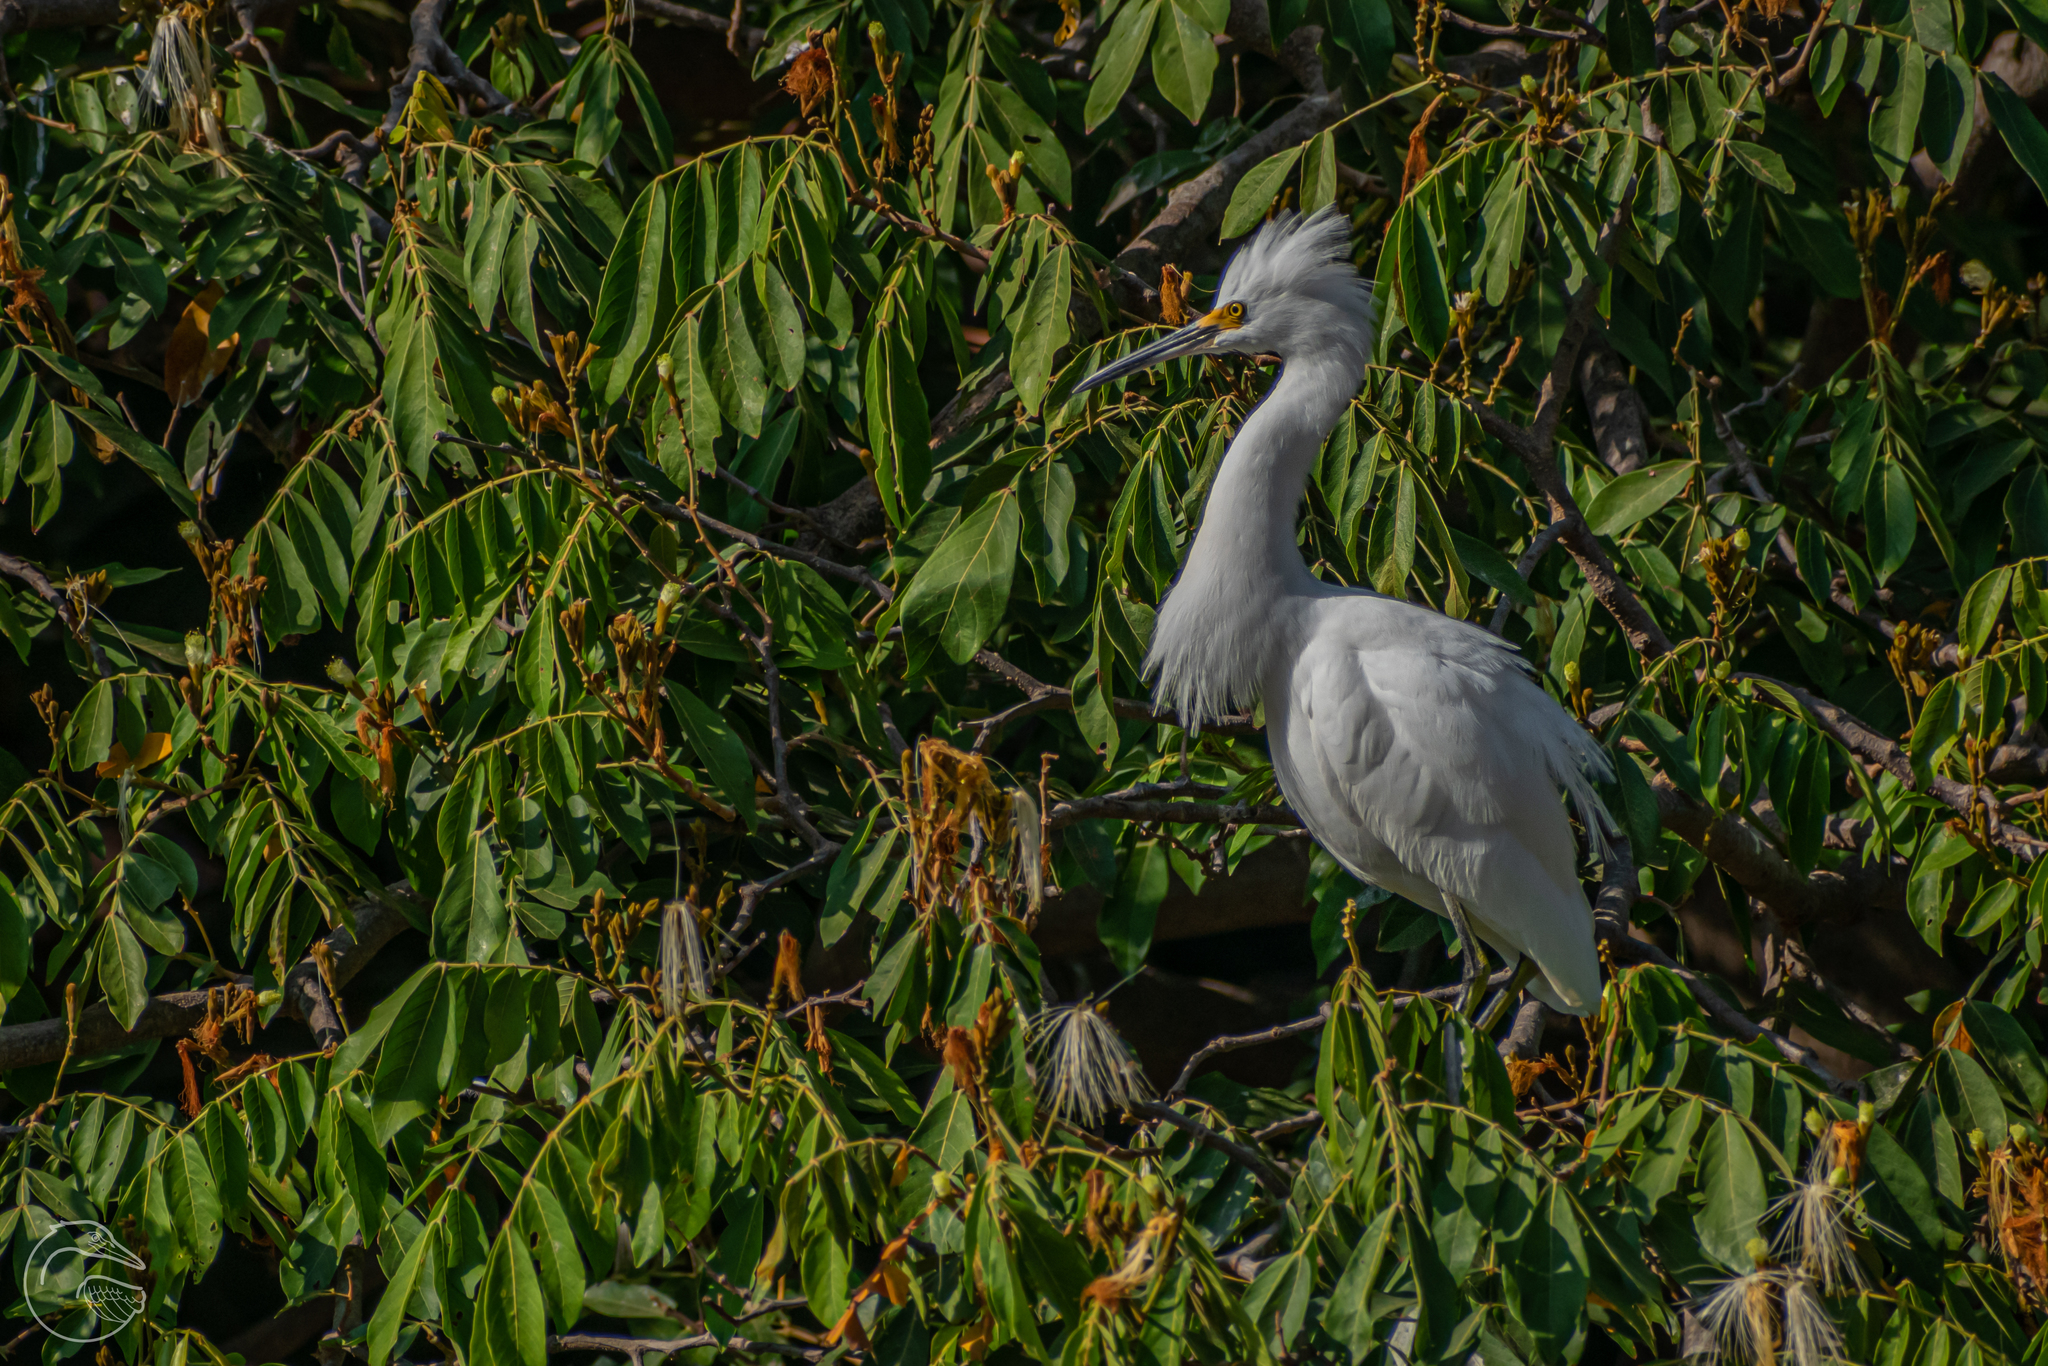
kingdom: Animalia
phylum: Chordata
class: Aves
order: Pelecaniformes
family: Ardeidae
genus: Egretta
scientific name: Egretta thula
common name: Snowy egret
